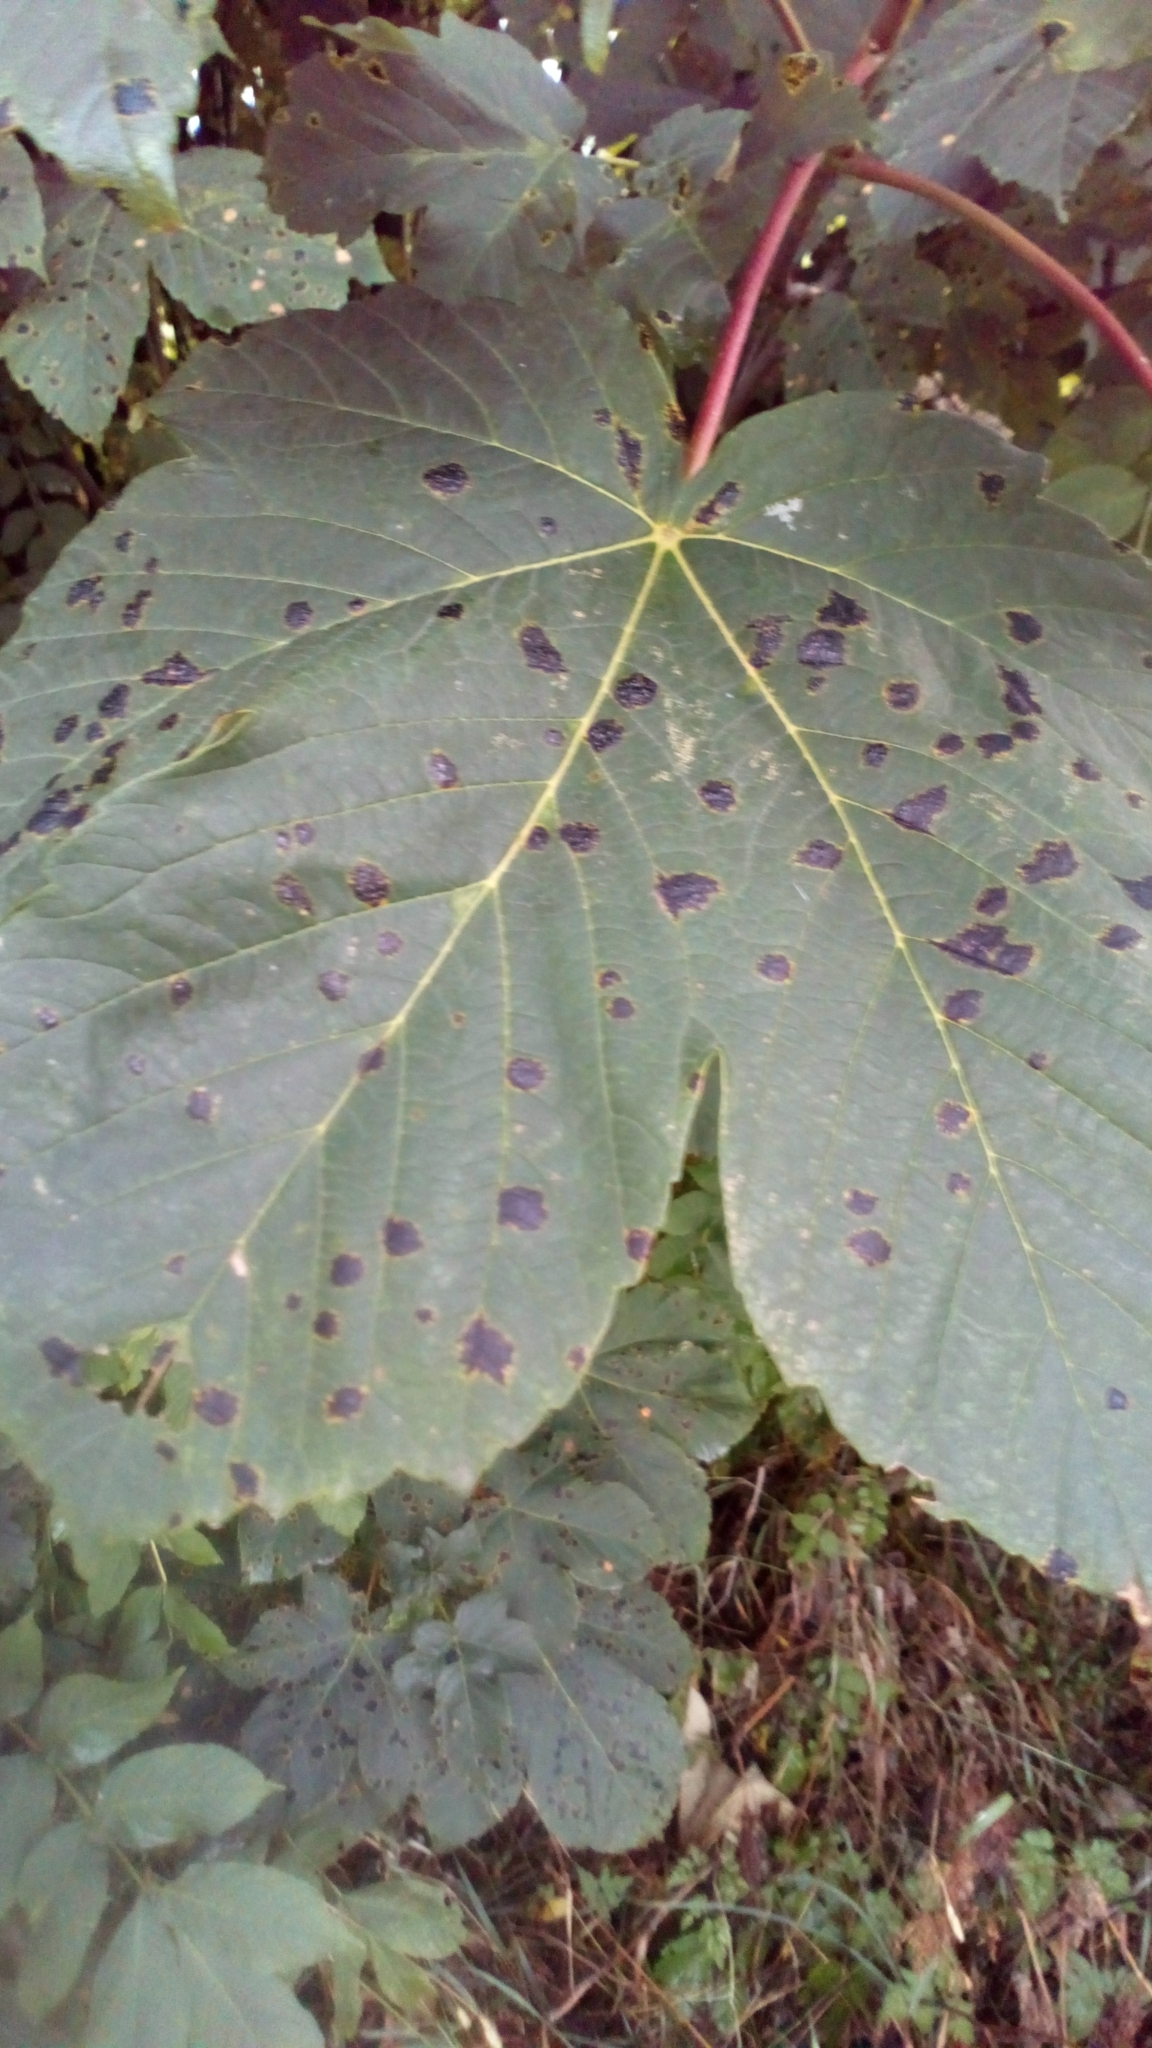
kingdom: Fungi
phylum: Ascomycota
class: Leotiomycetes
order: Rhytismatales
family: Rhytismataceae
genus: Rhytisma
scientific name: Rhytisma acerinum
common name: European tar spot
